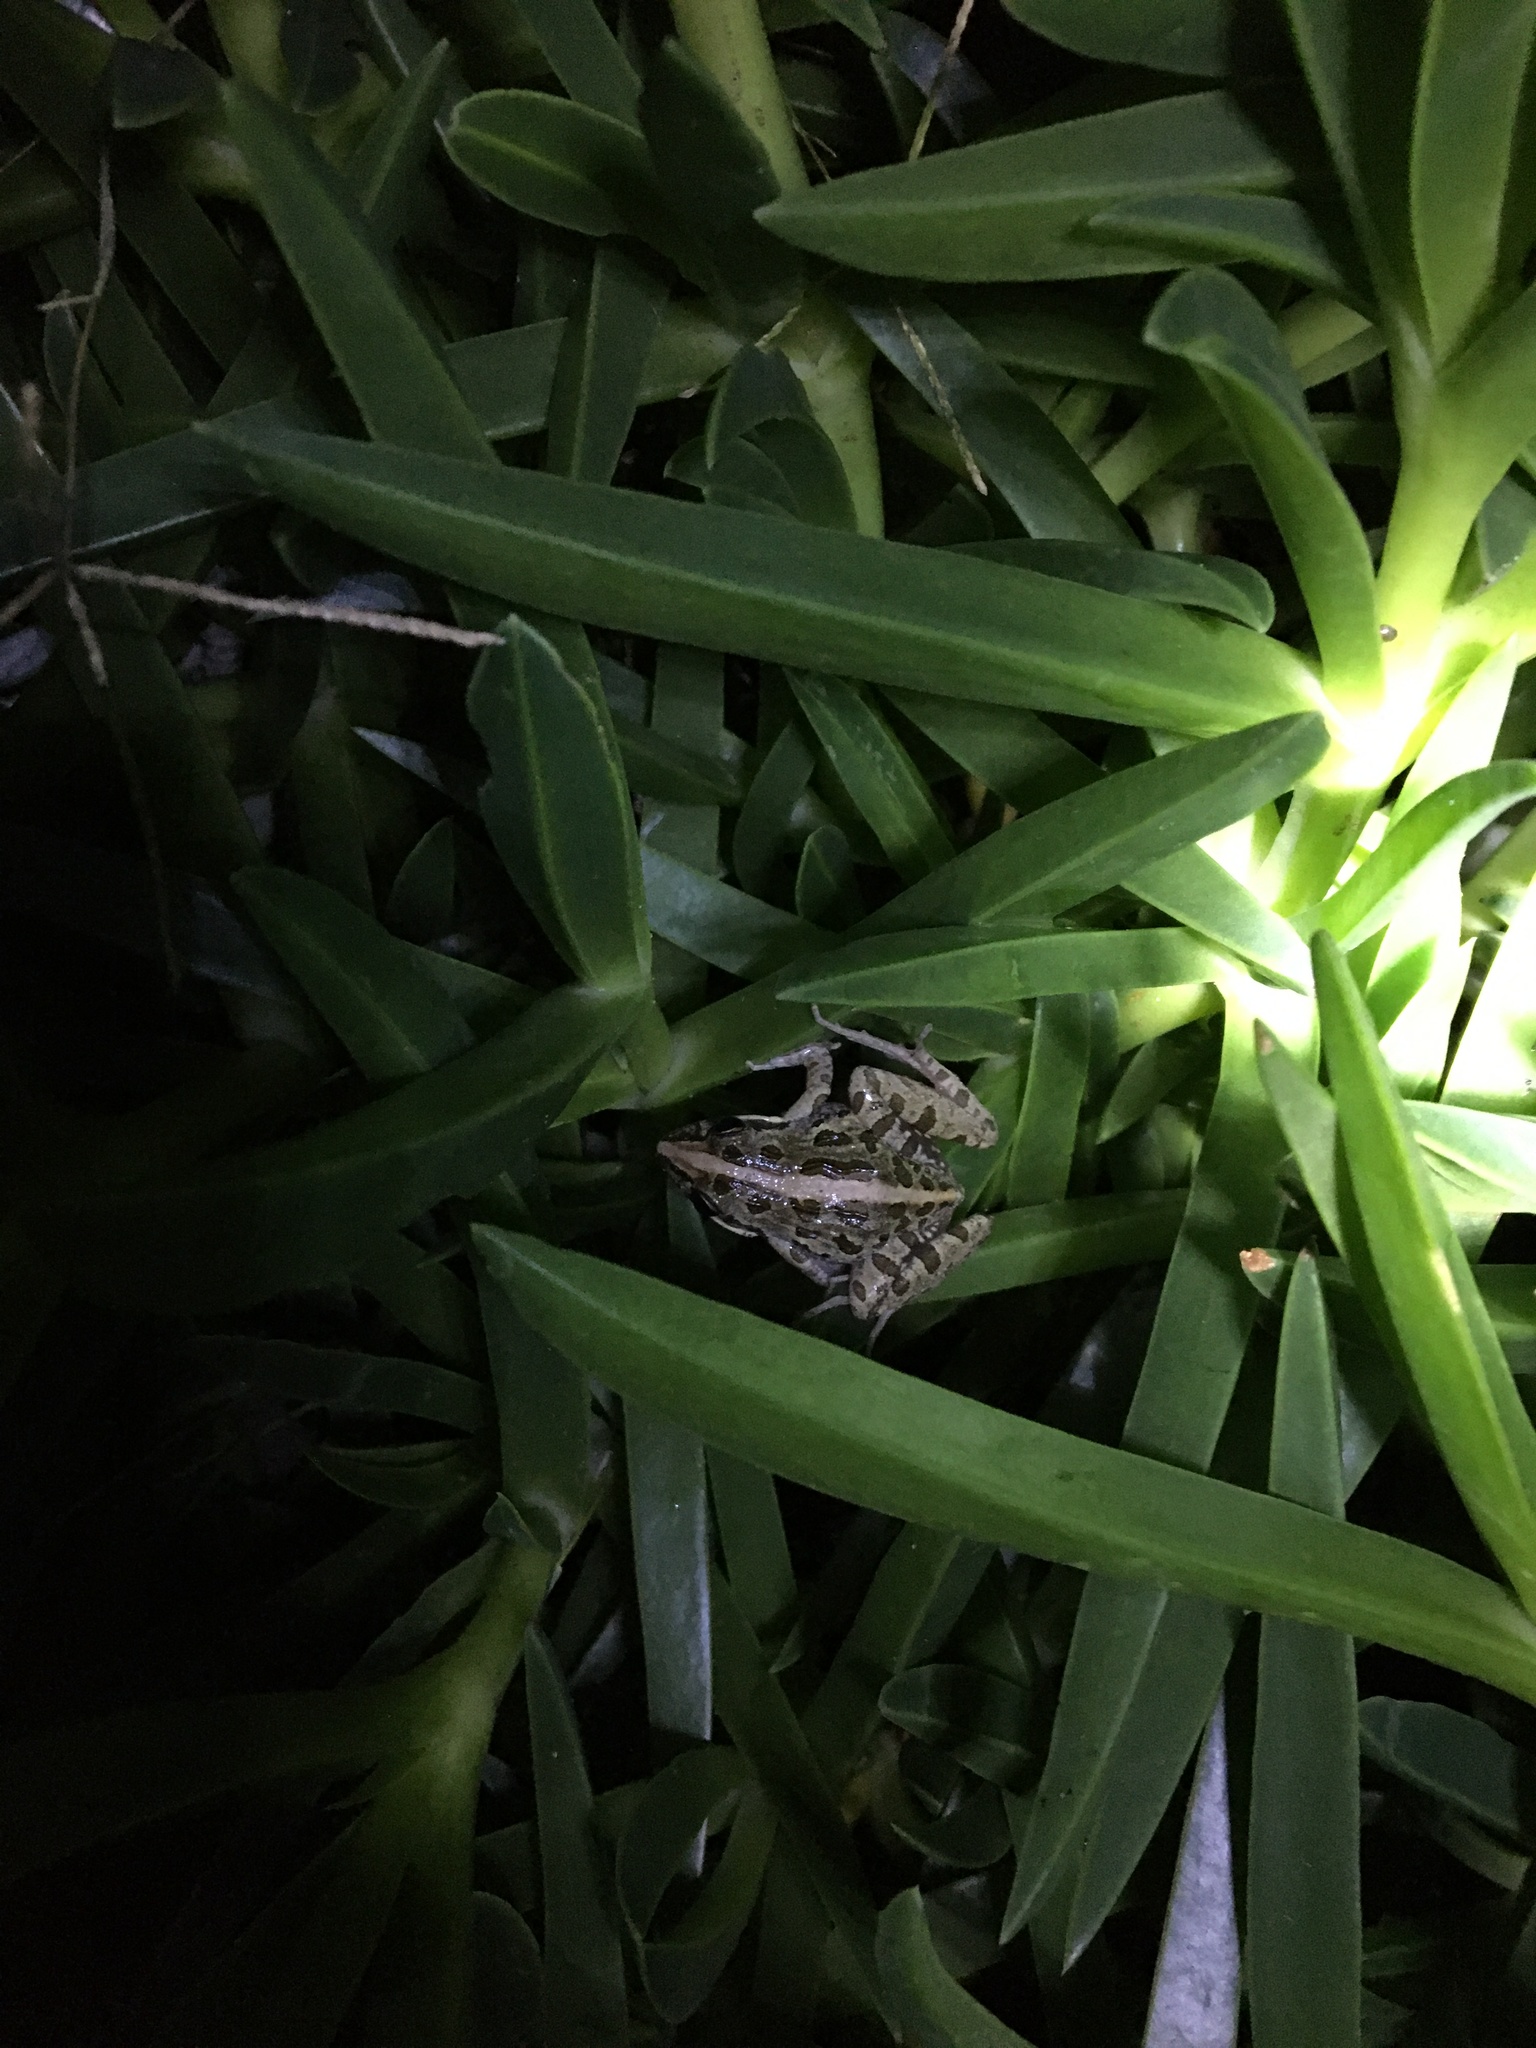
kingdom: Animalia
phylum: Chordata
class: Amphibia
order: Anura
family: Pyxicephalidae
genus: Strongylopus
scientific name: Strongylopus grayii
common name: Gray's stream frog
